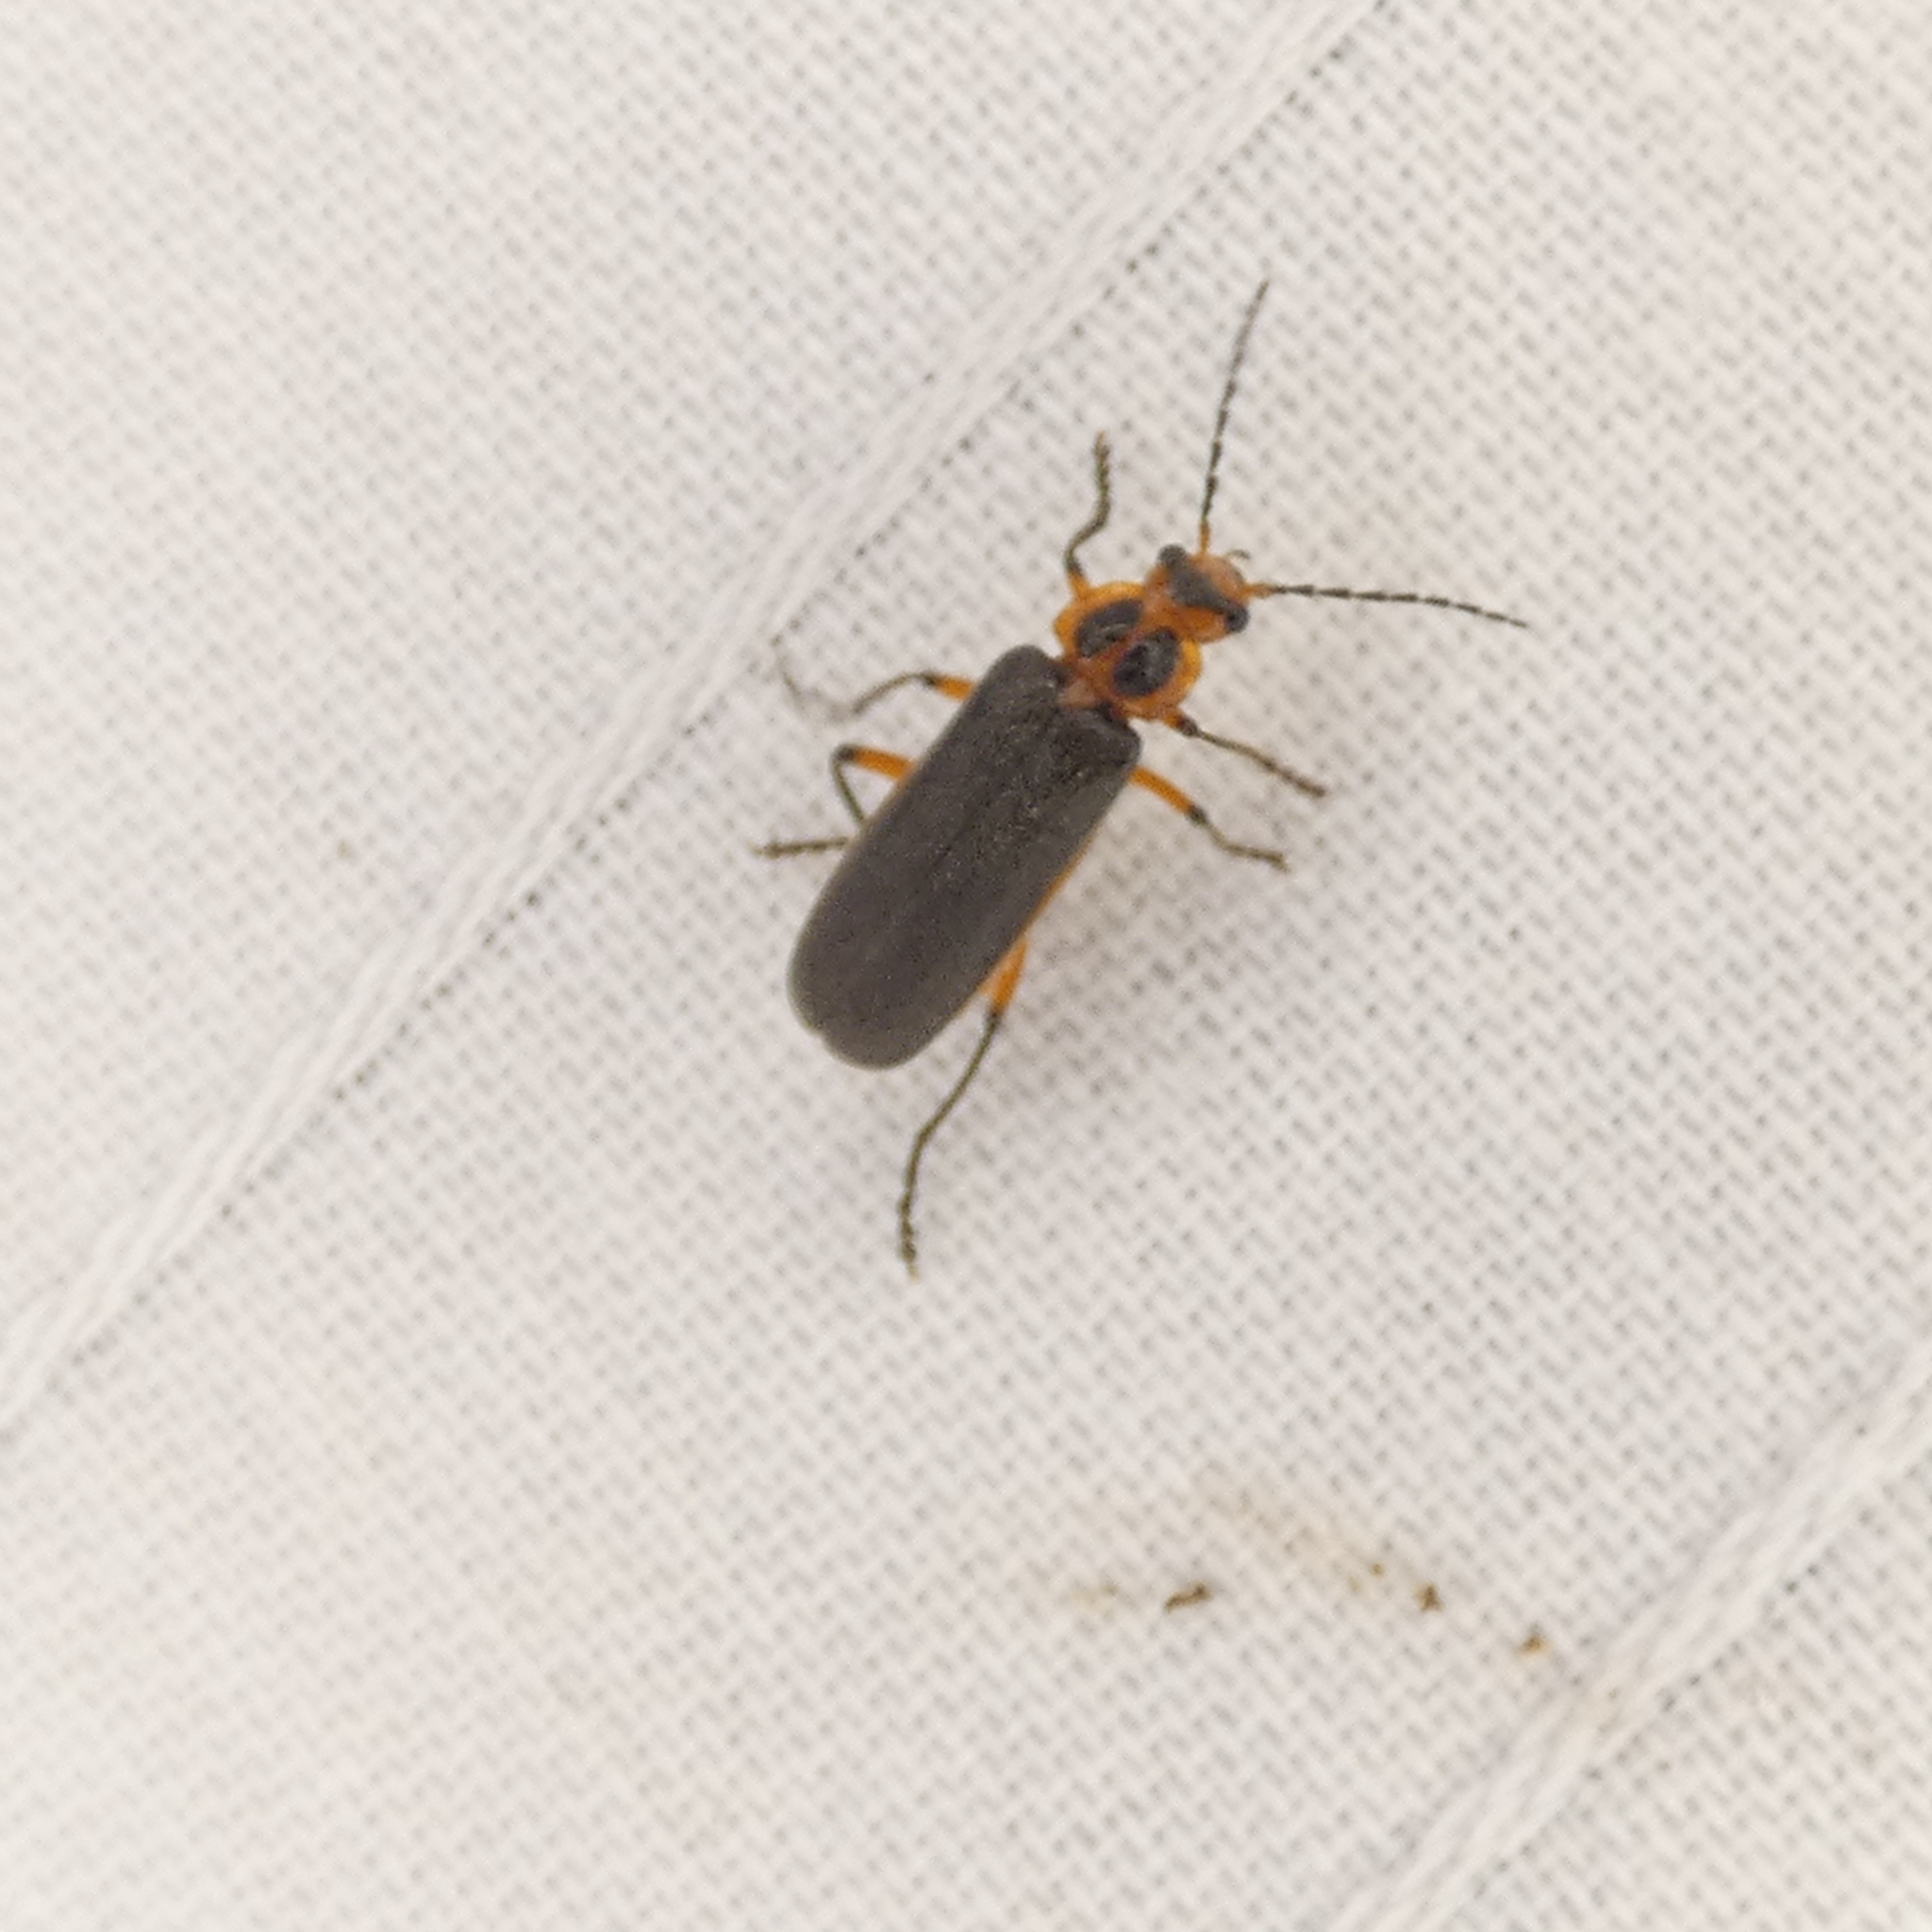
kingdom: Animalia
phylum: Arthropoda
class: Insecta
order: Coleoptera
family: Cantharidae
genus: Atalantycha
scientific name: Atalantycha bilineata
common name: Two-lined leatherwing
